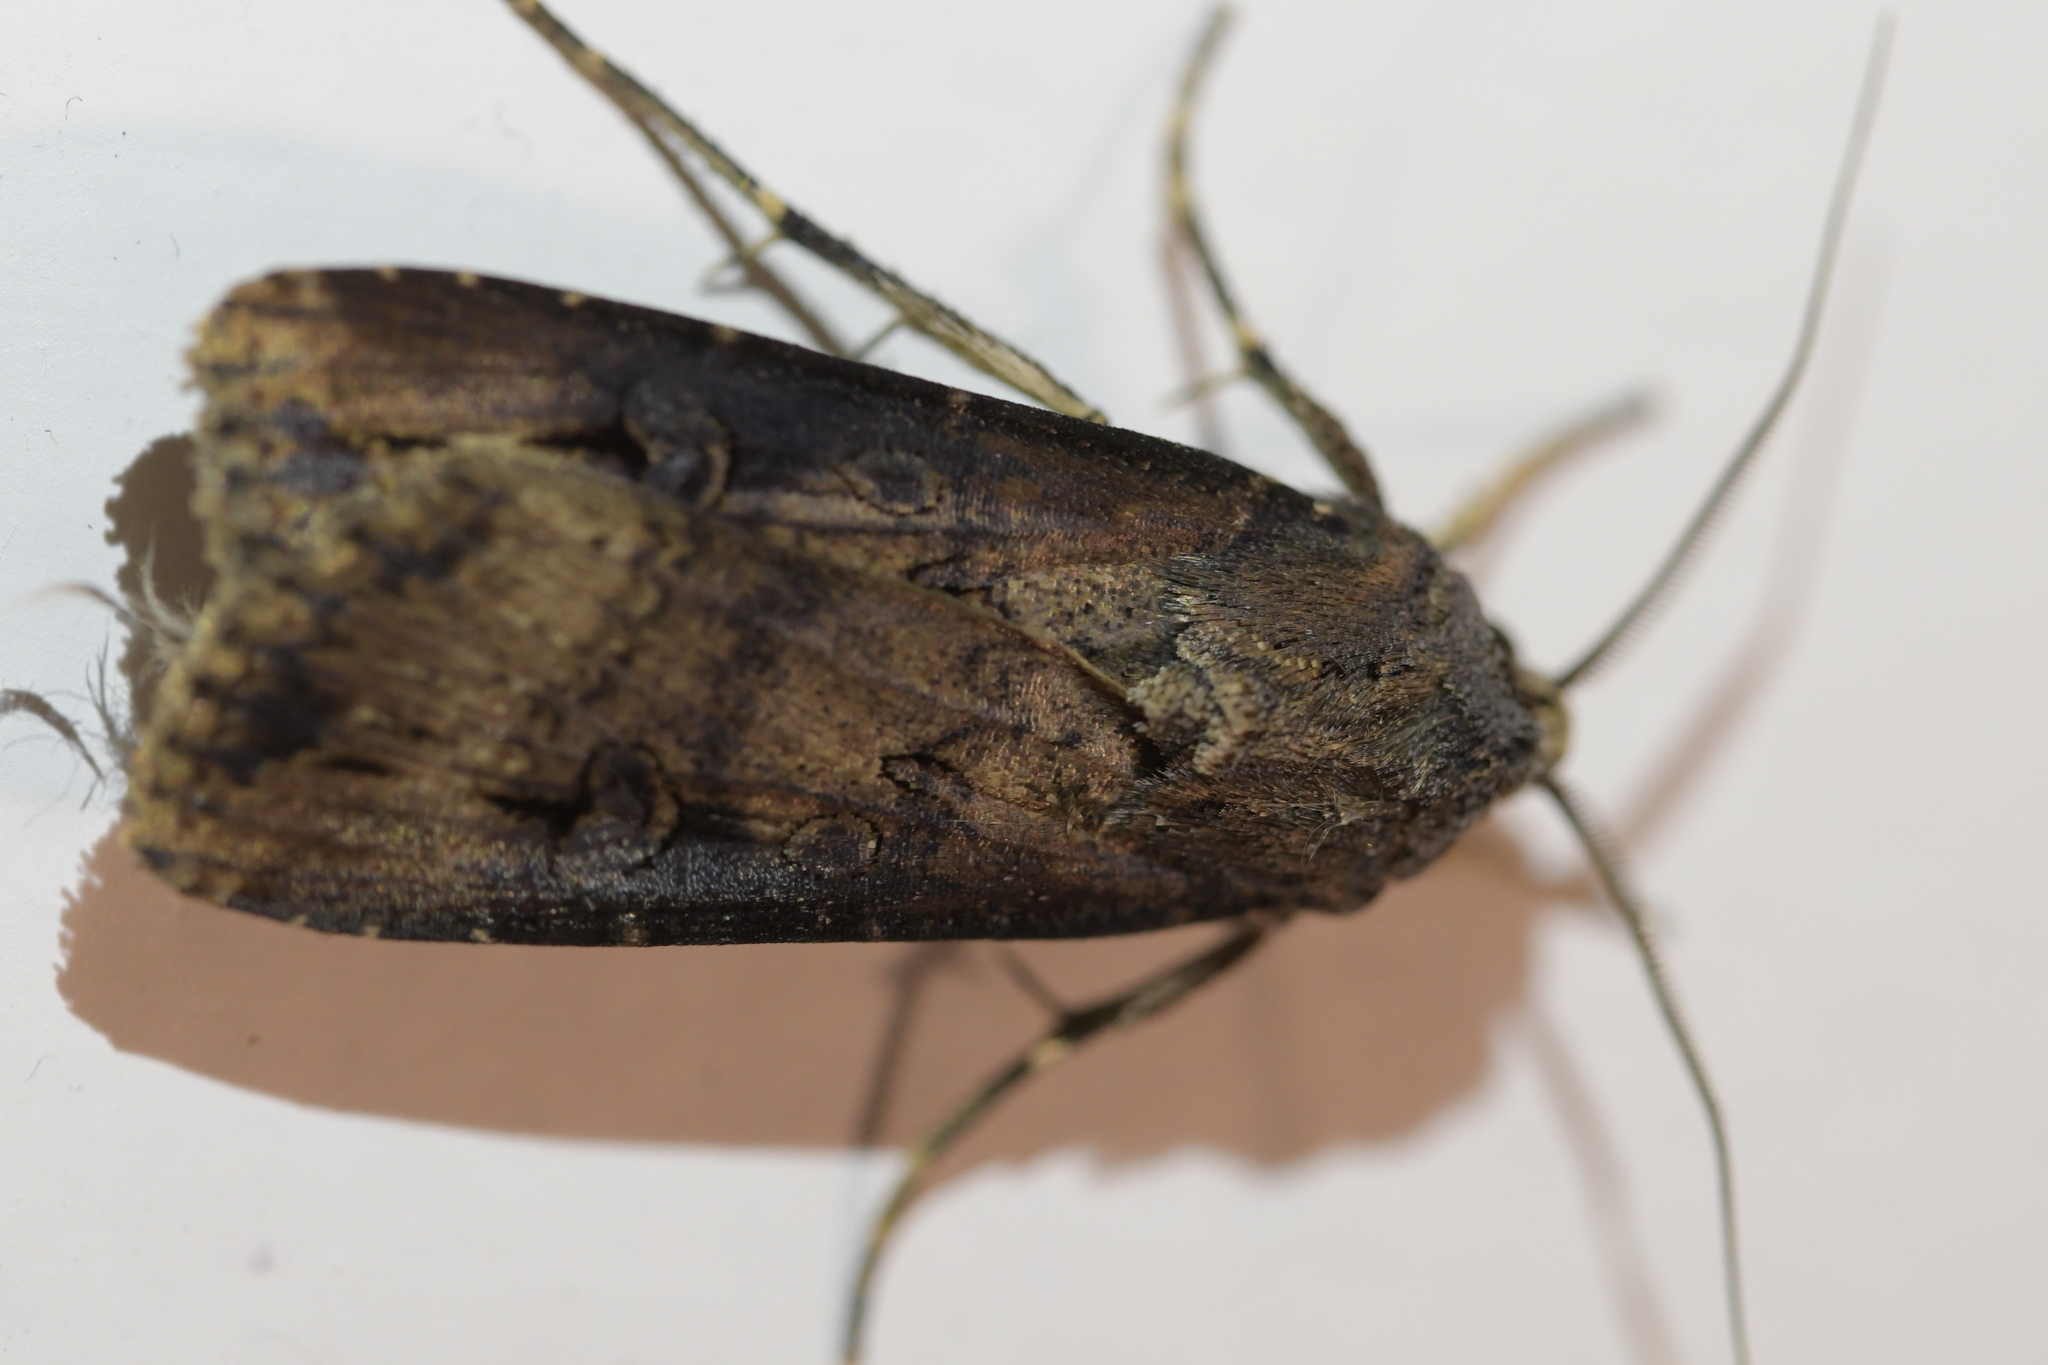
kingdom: Animalia
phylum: Arthropoda
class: Insecta
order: Lepidoptera
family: Noctuidae
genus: Agrotis
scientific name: Agrotis ipsilon
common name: Dark sword-grass
